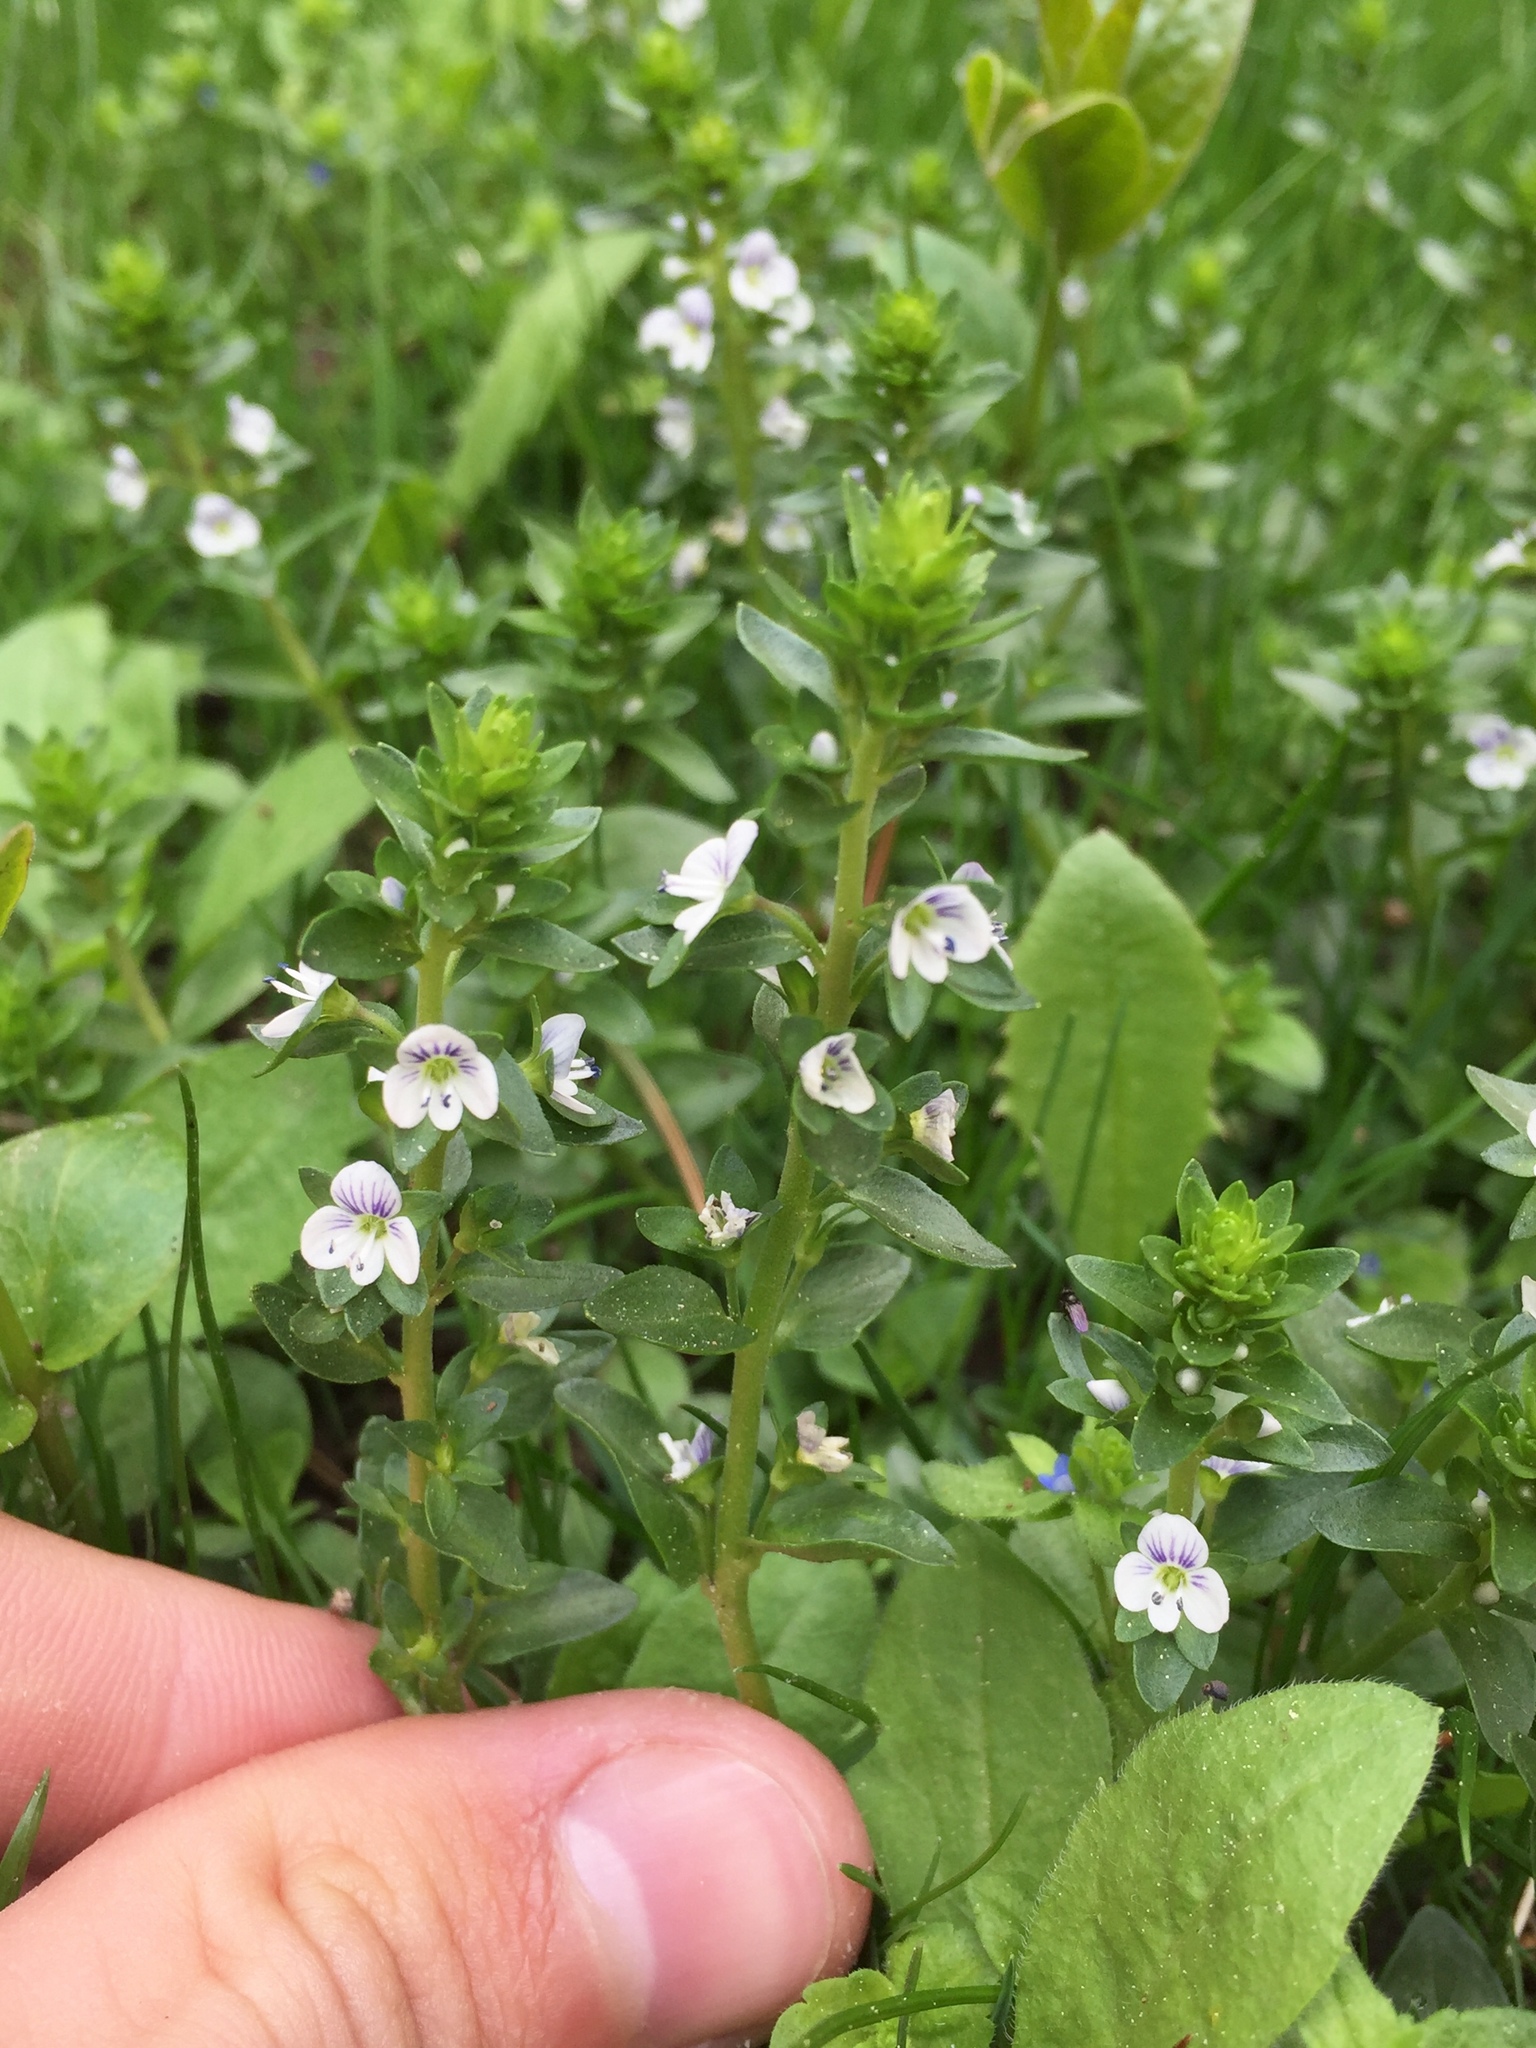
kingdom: Plantae
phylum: Tracheophyta
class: Magnoliopsida
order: Lamiales
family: Plantaginaceae
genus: Veronica
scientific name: Veronica serpyllifolia
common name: Thyme-leaved speedwell
